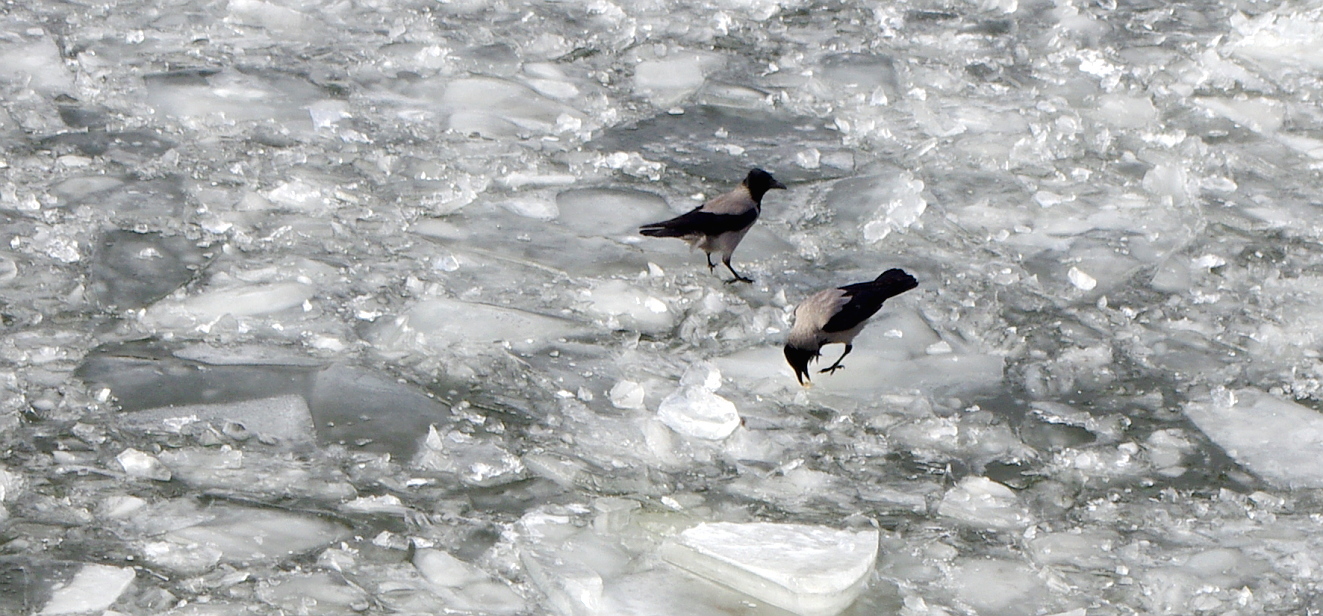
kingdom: Animalia
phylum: Chordata
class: Aves
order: Passeriformes
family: Corvidae
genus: Corvus
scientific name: Corvus cornix
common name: Hooded crow
